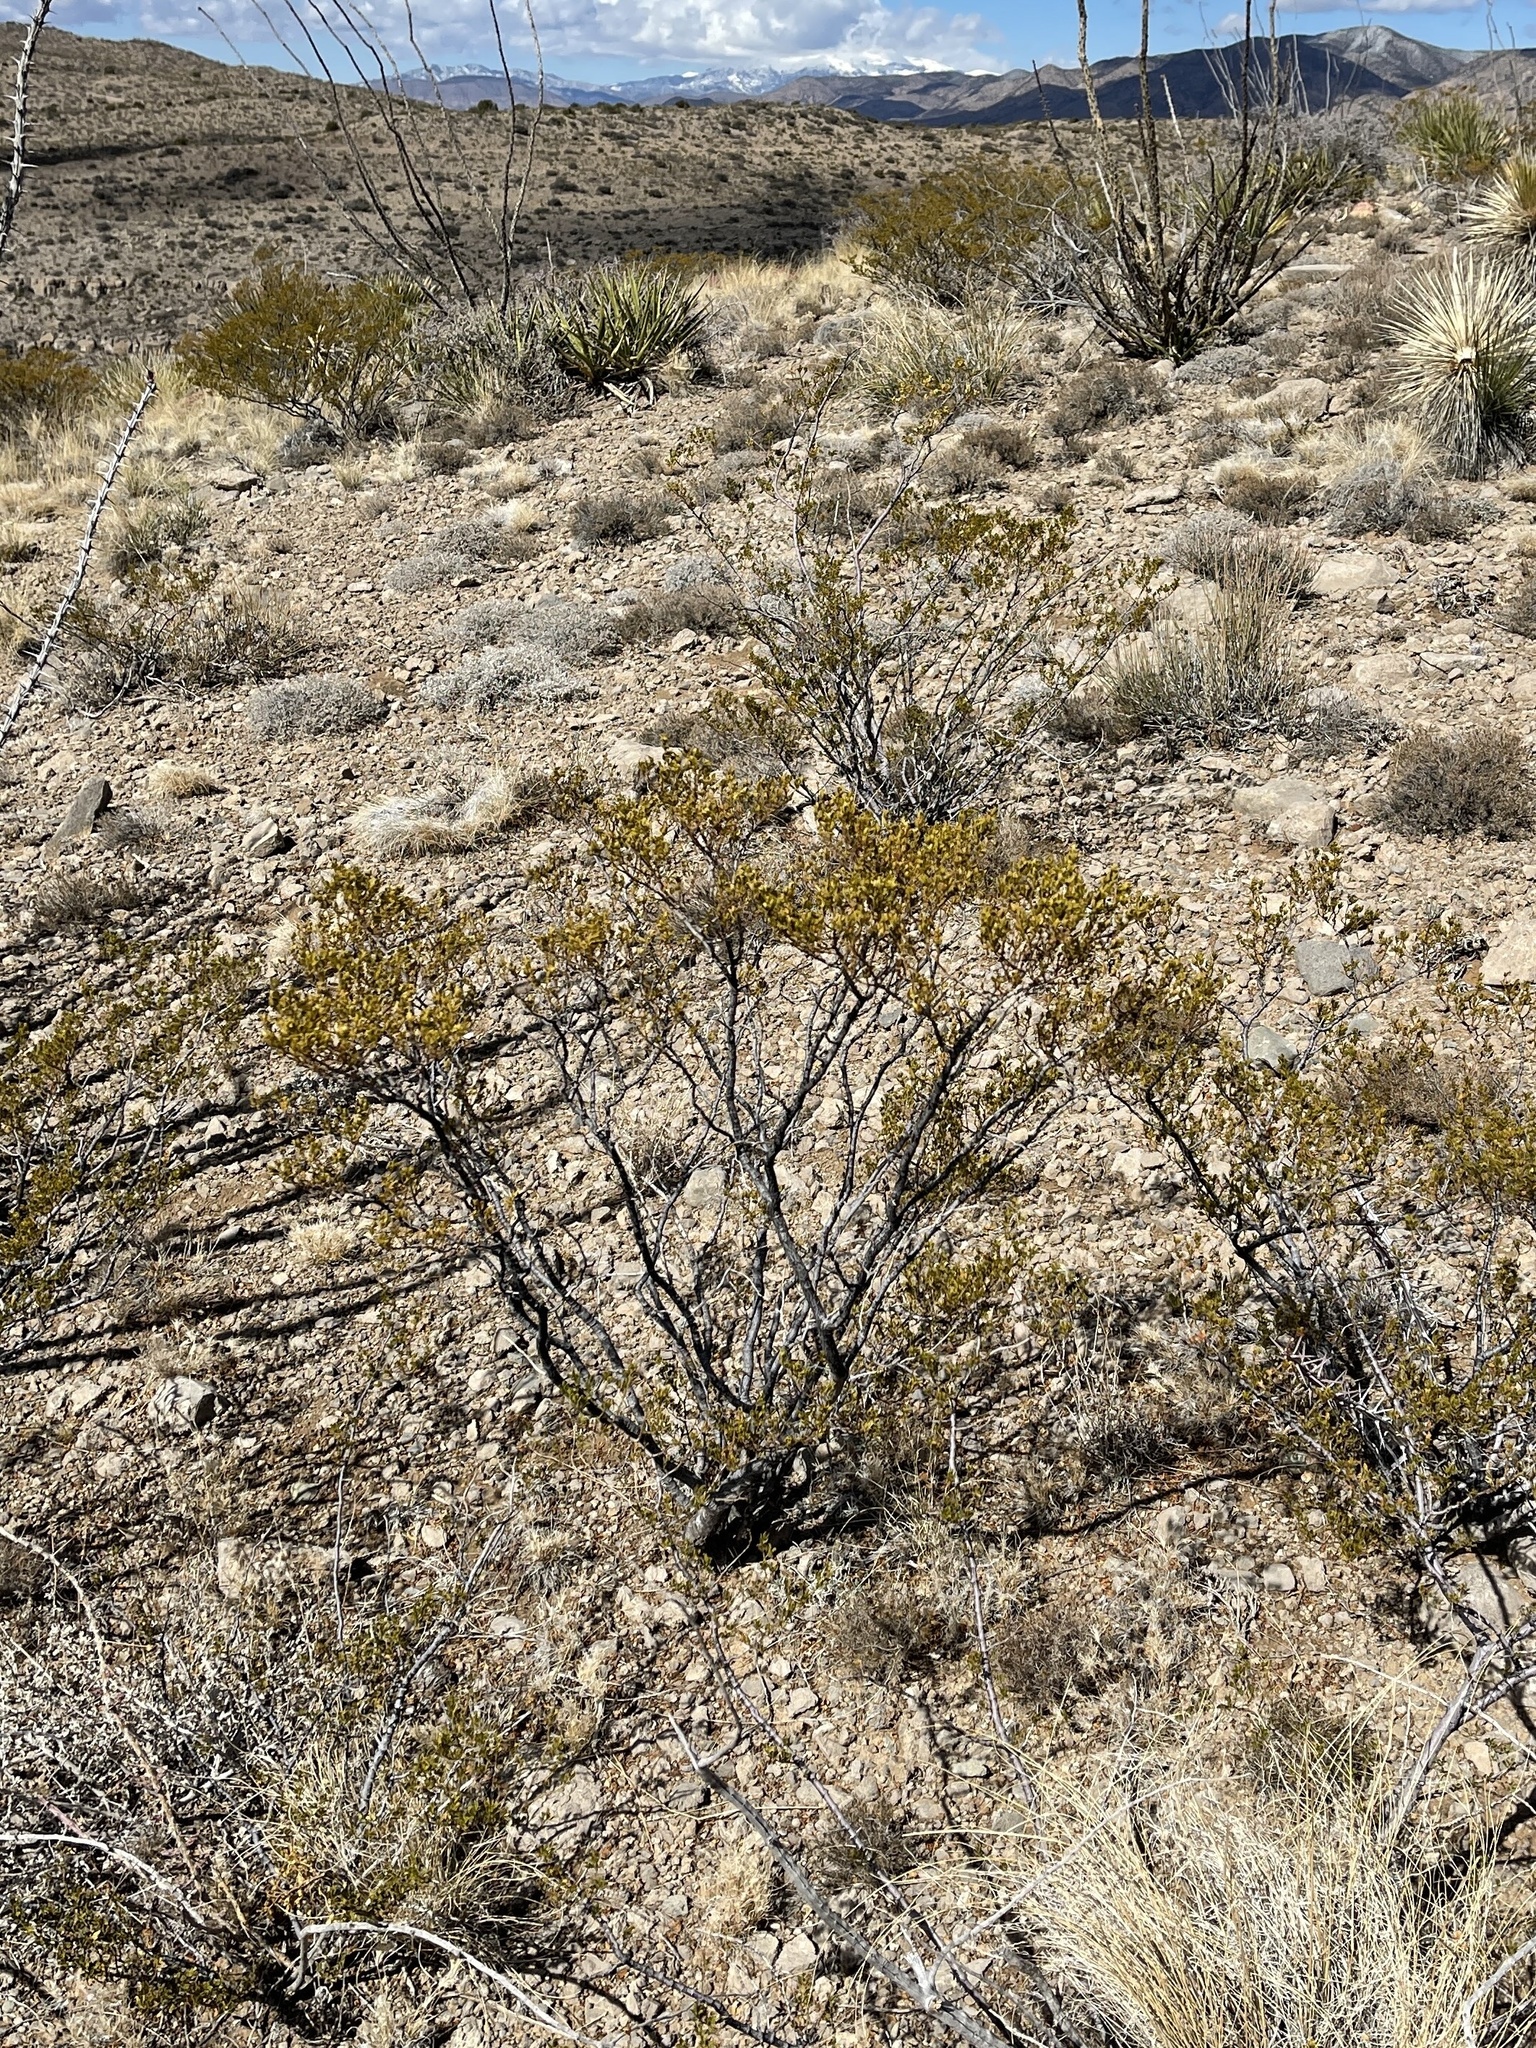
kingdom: Plantae
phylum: Tracheophyta
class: Magnoliopsida
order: Zygophyllales
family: Zygophyllaceae
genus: Larrea
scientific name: Larrea tridentata
